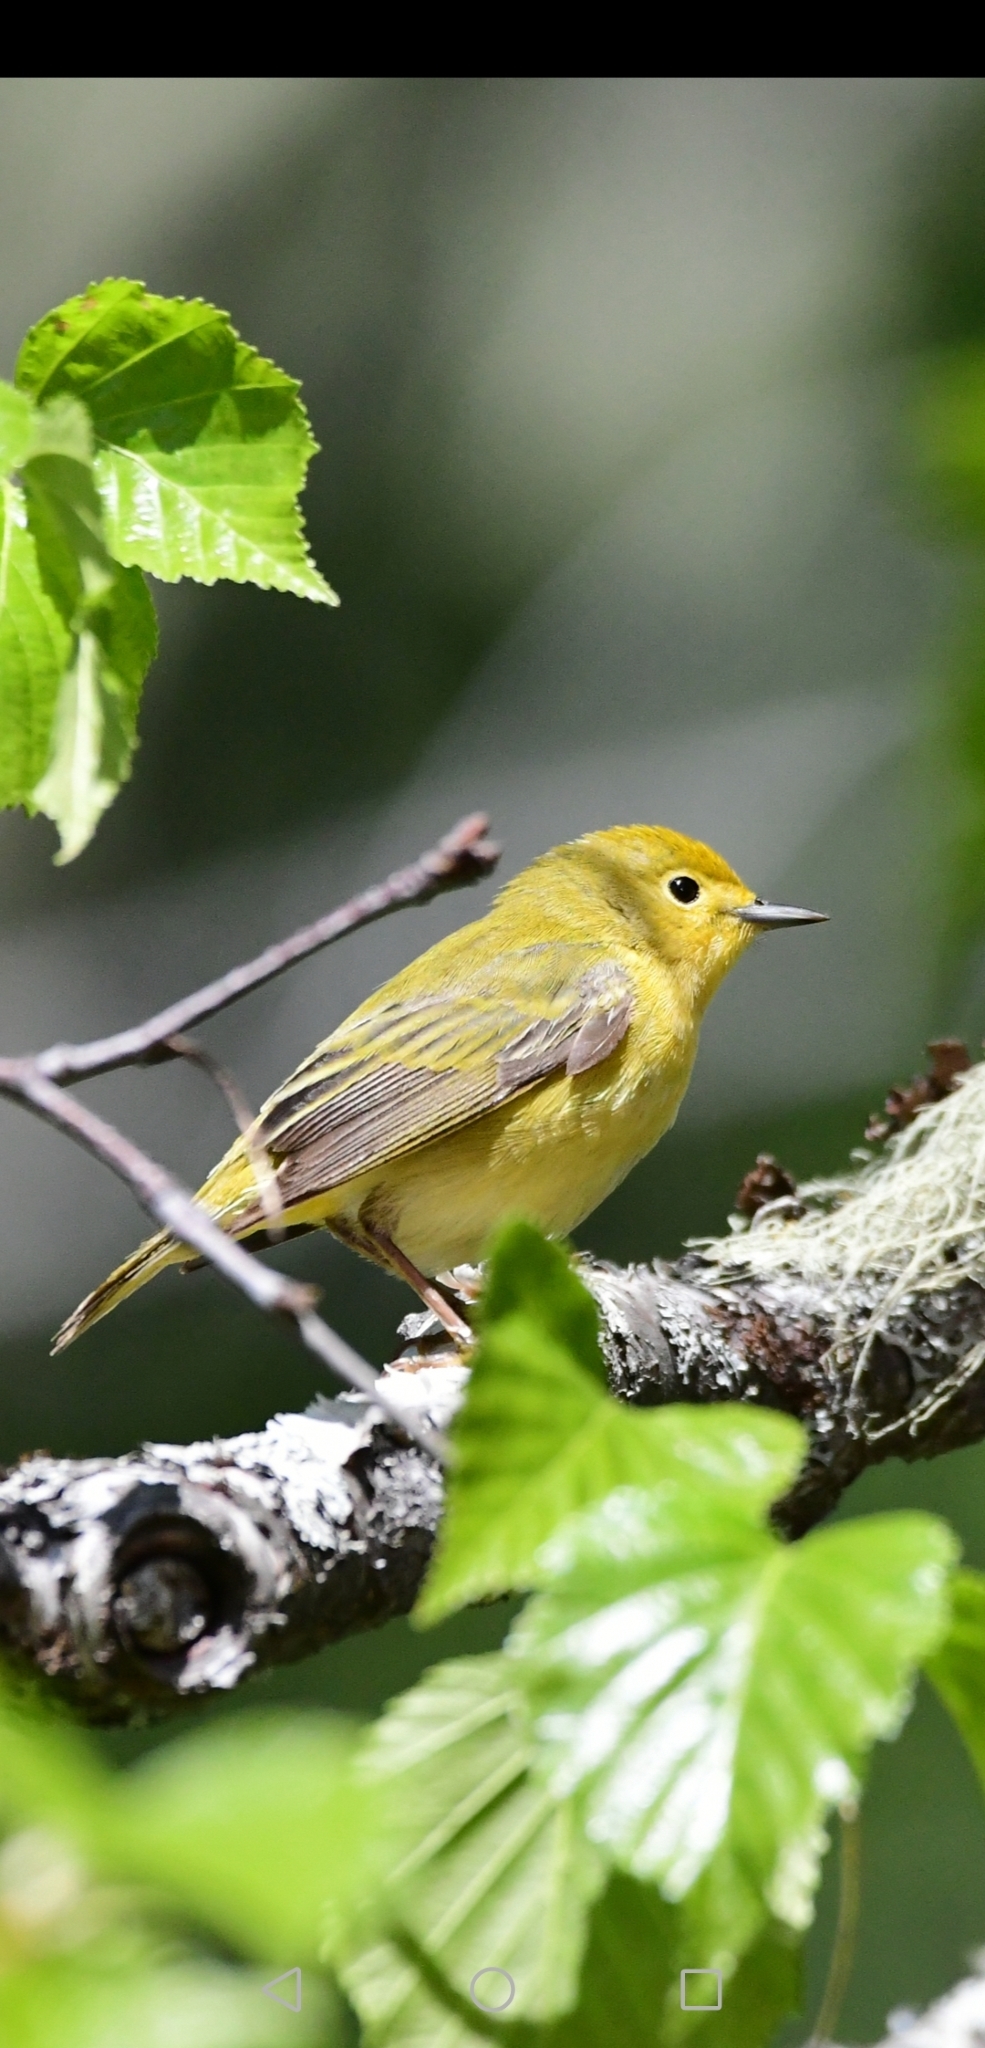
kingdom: Animalia
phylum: Chordata
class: Aves
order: Passeriformes
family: Parulidae
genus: Setophaga
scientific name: Setophaga petechia
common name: Yellow warbler
